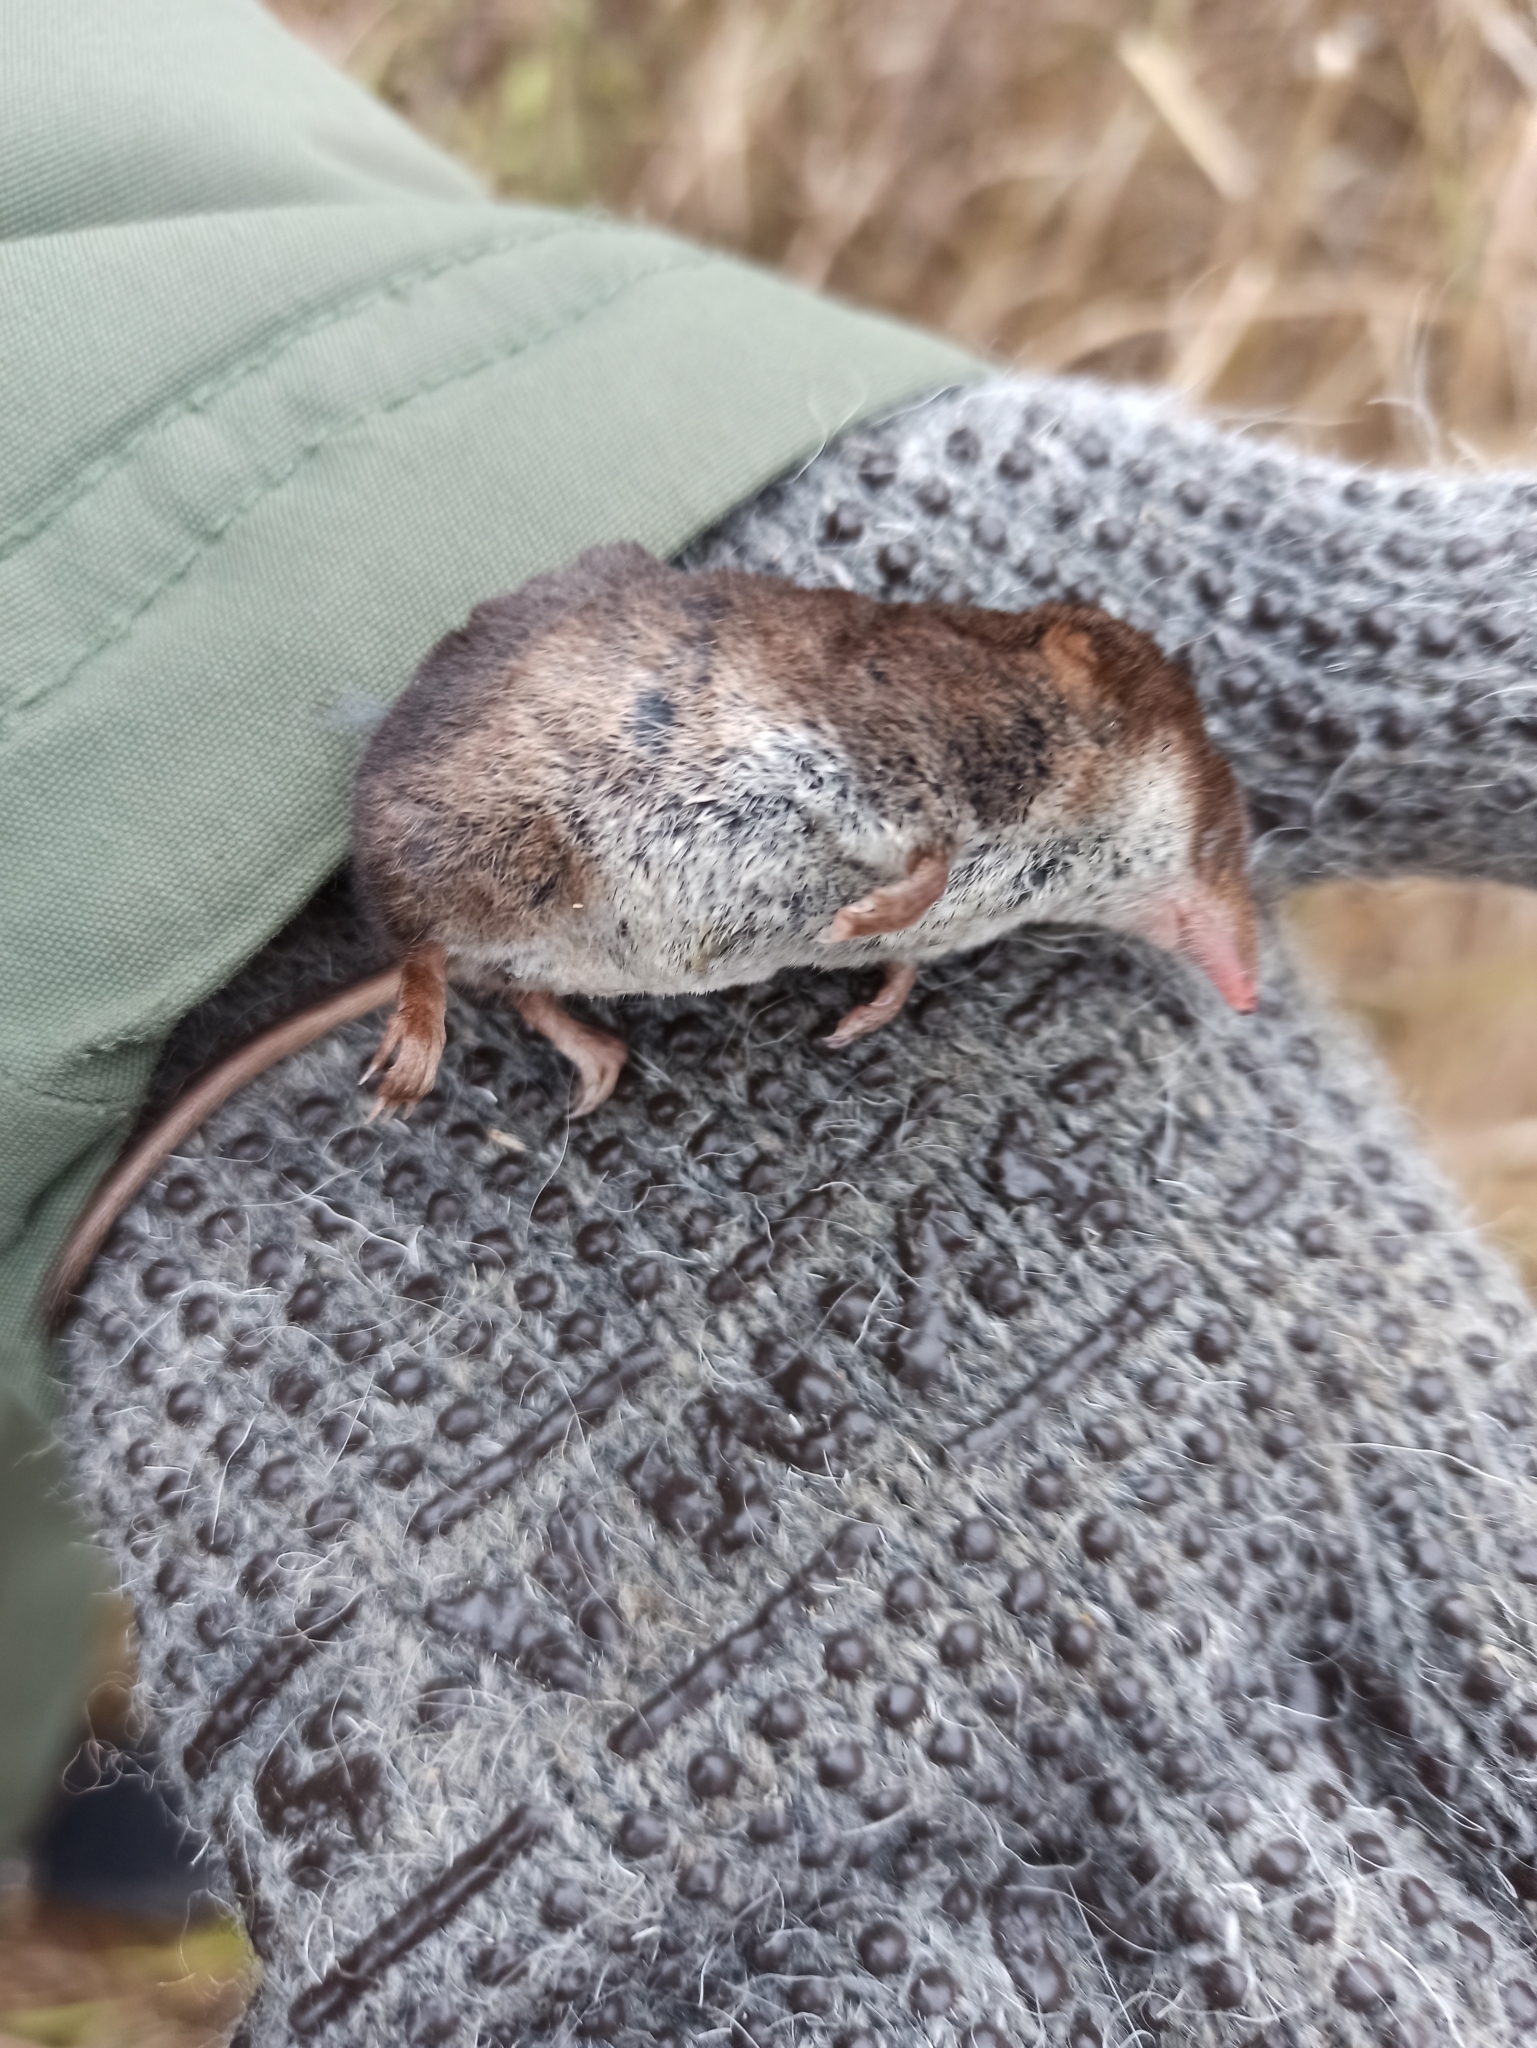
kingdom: Animalia
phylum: Chordata
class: Mammalia
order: Soricomorpha
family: Soricidae
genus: Sorex
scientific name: Sorex araneus
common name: Common shrew
